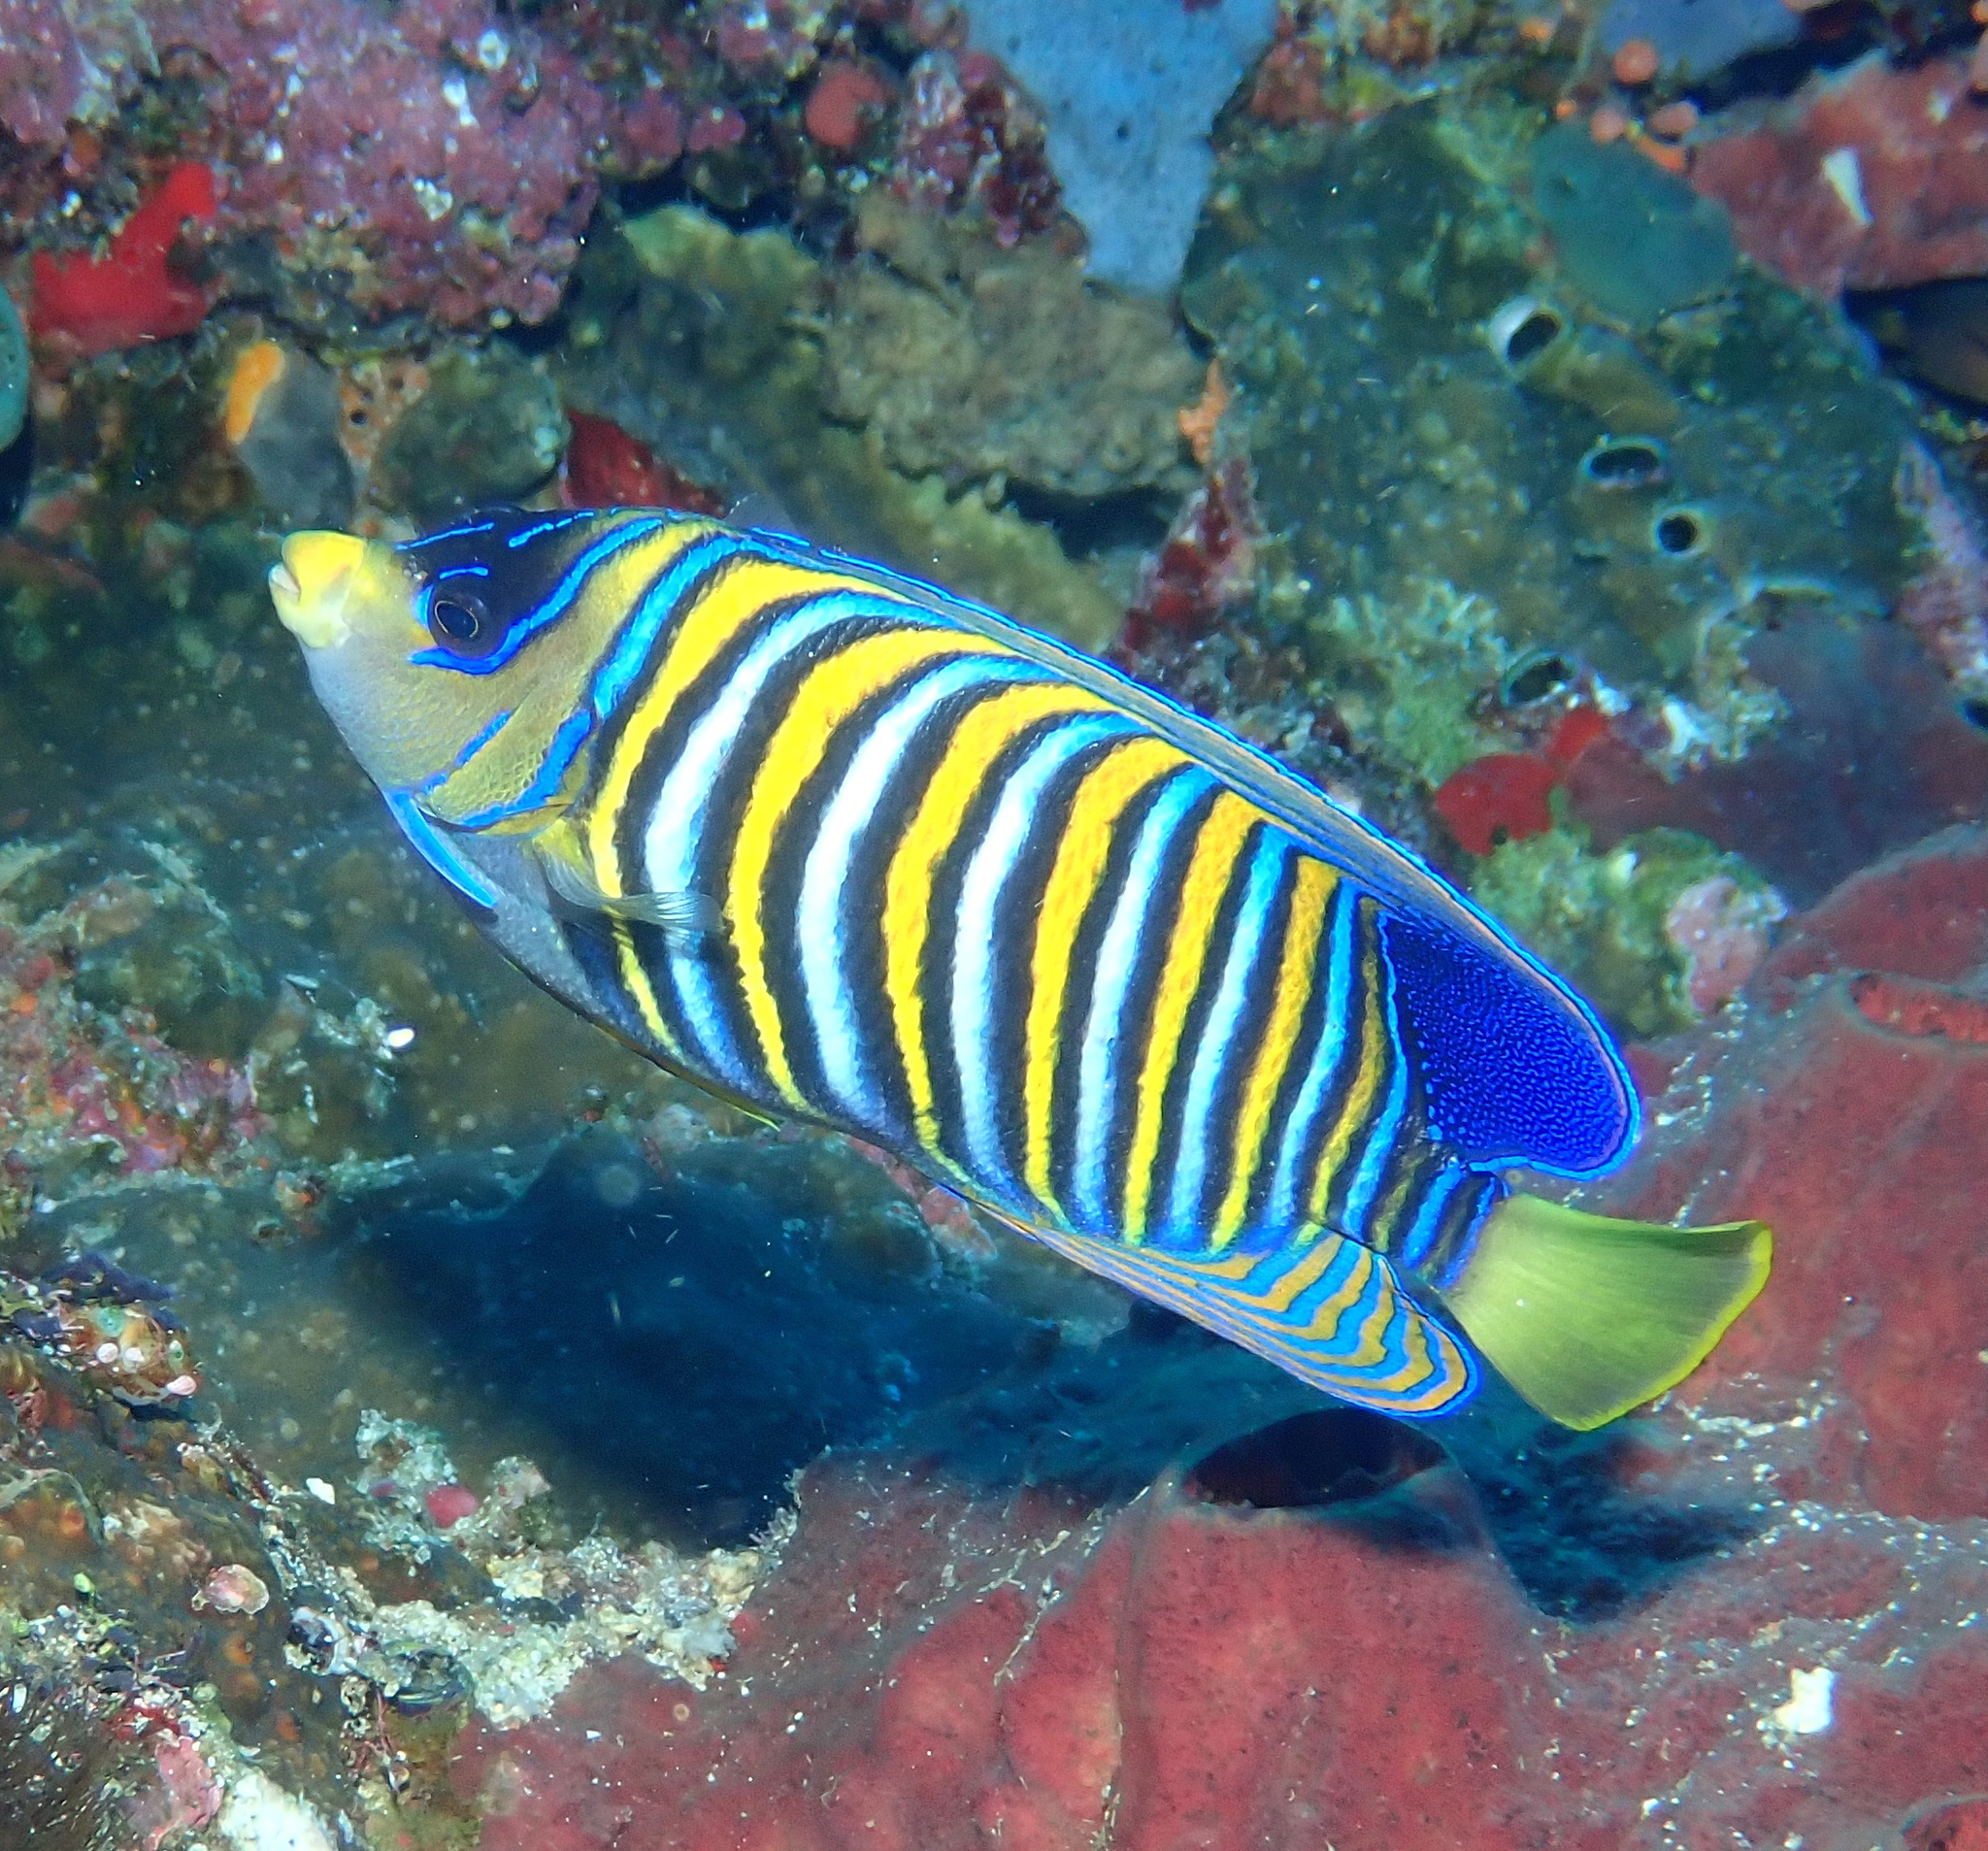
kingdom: Animalia
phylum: Chordata
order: Perciformes
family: Pomacanthidae
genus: Pygoplites
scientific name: Pygoplites diacanthus
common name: Regal angelfish
